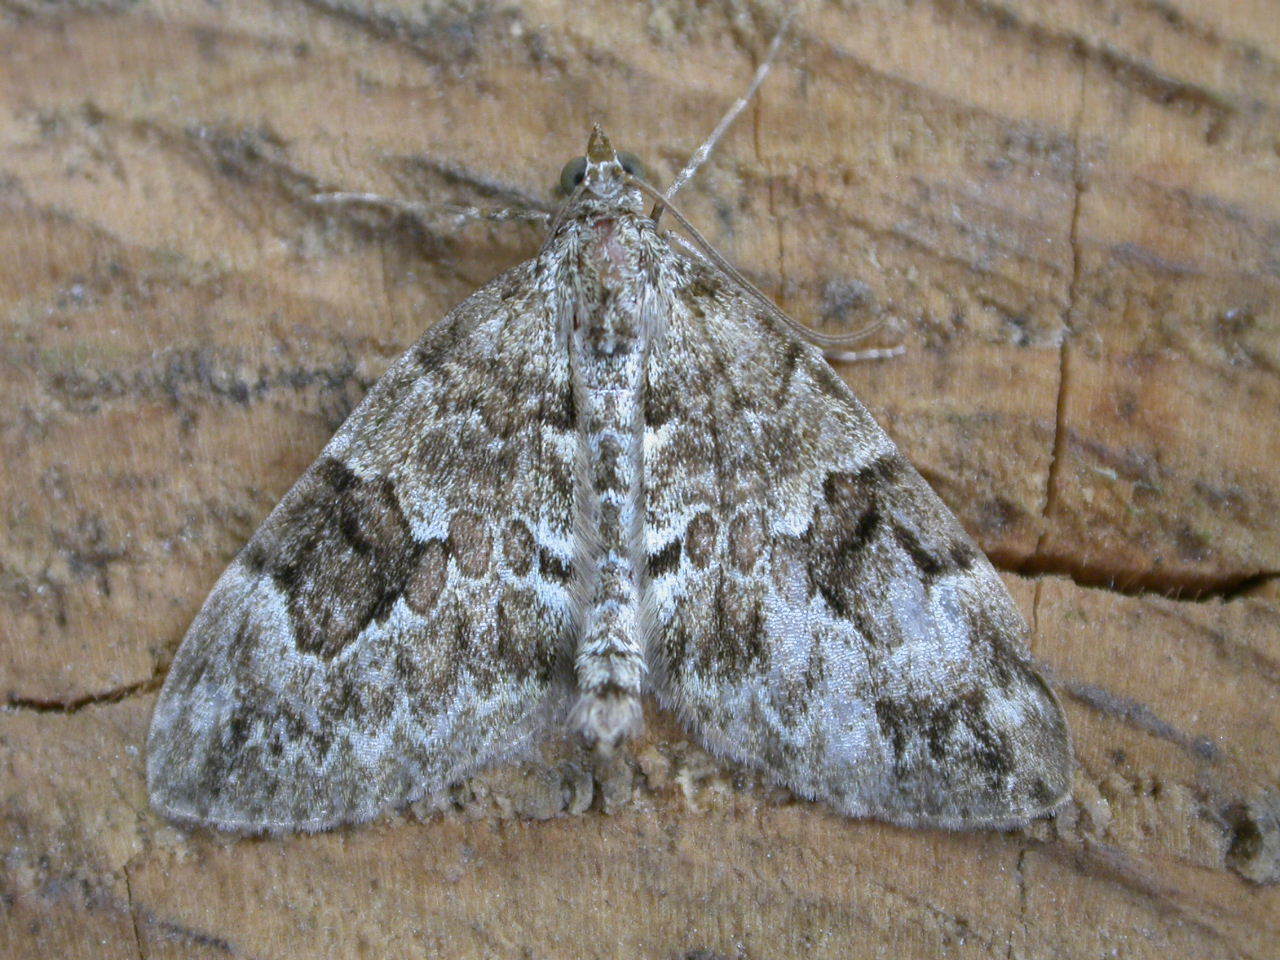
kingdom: Animalia
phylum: Arthropoda
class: Insecta
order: Lepidoptera
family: Geometridae
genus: Thera
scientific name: Thera variata
